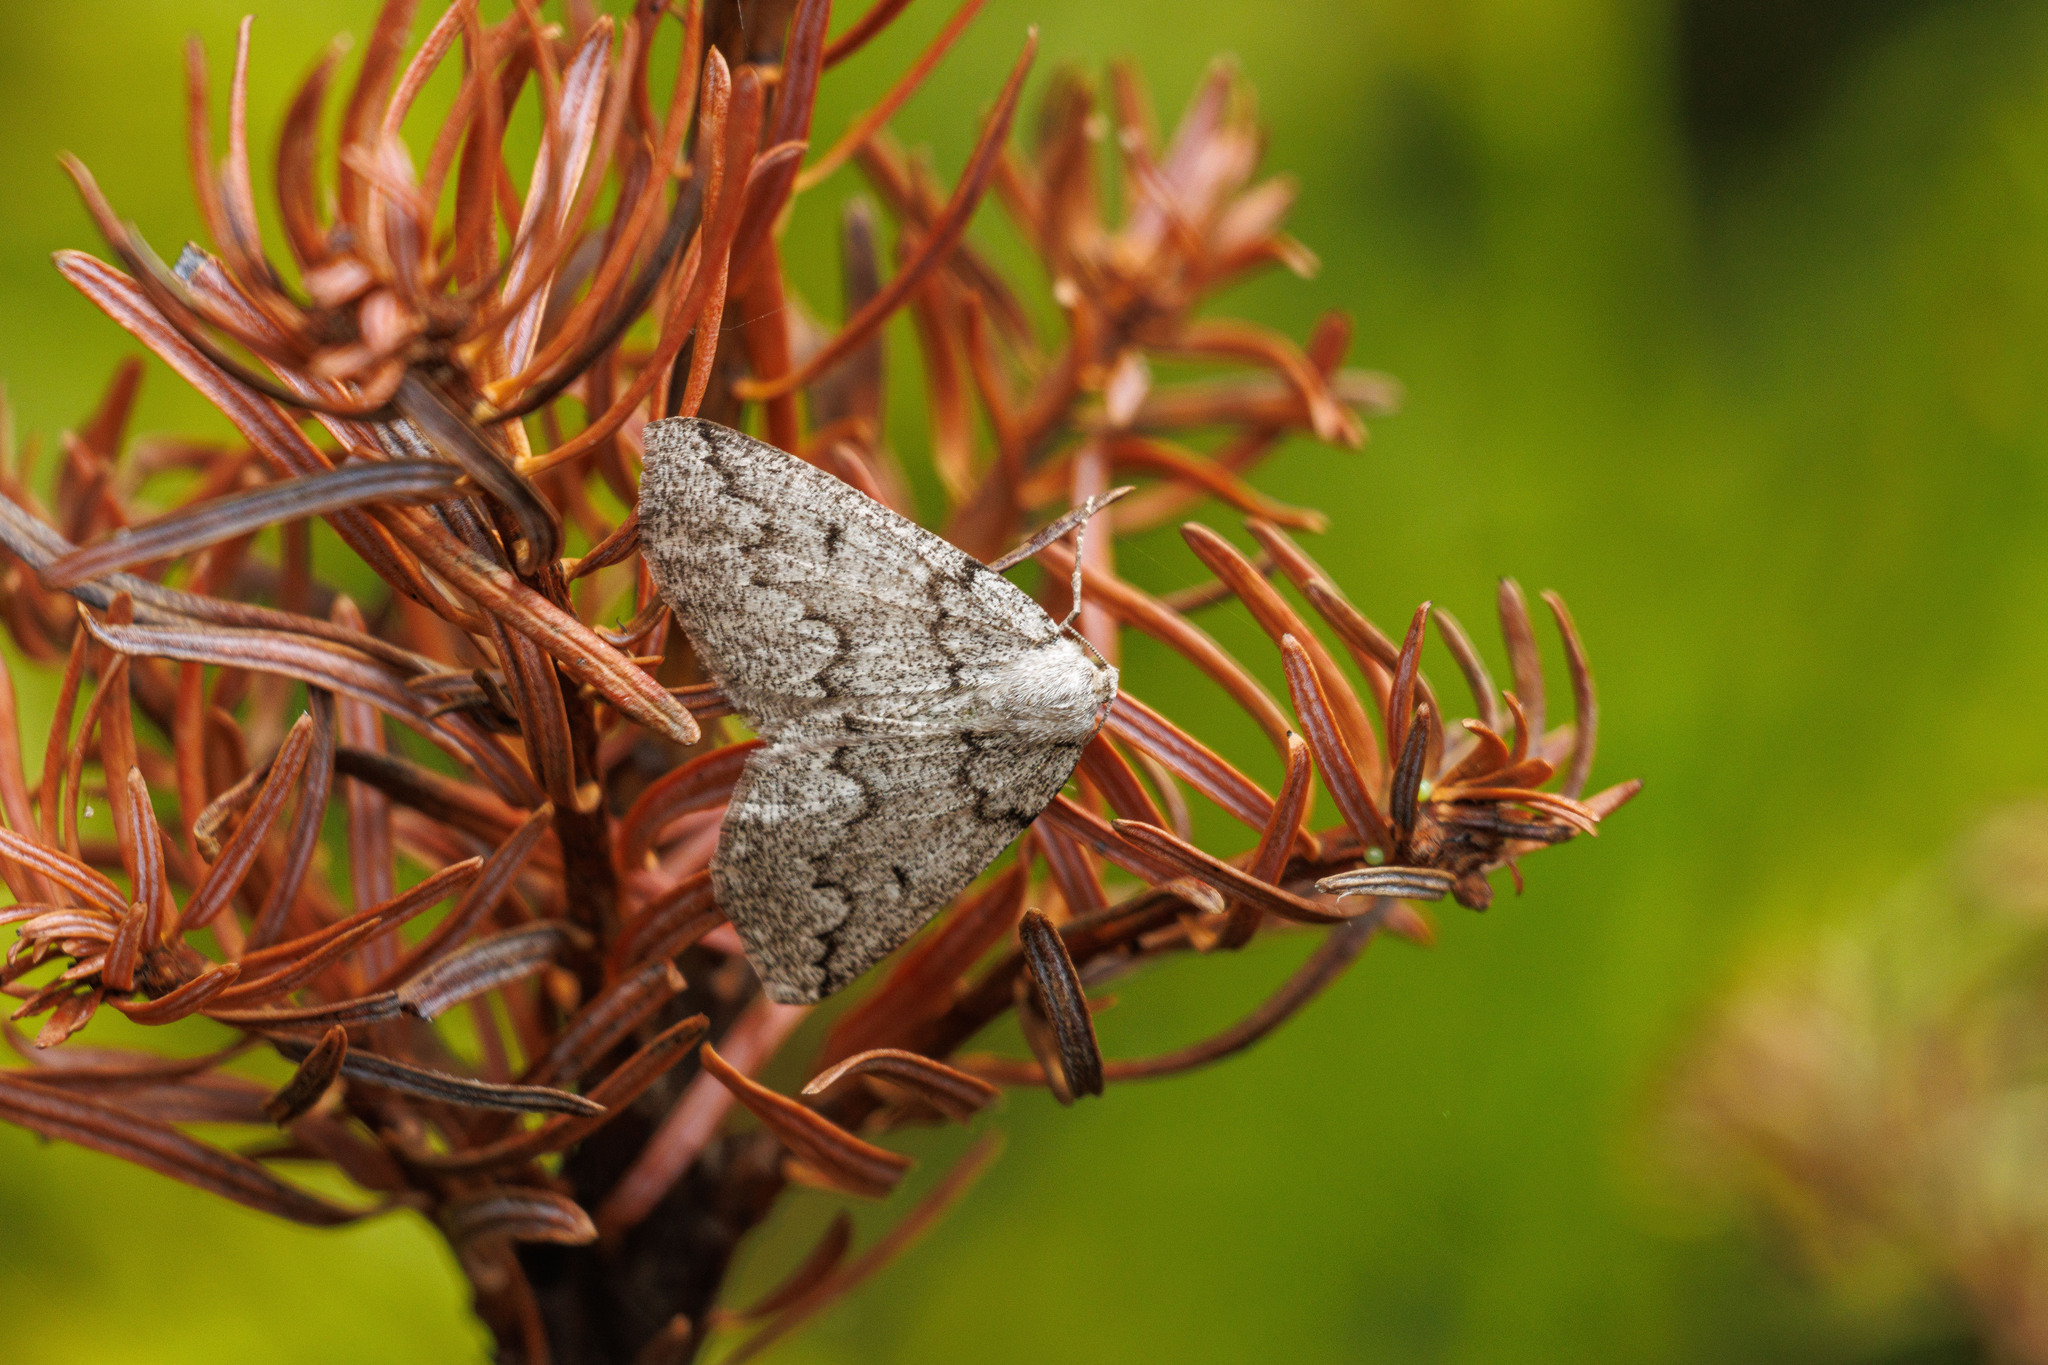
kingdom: Animalia
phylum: Arthropoda
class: Insecta
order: Lepidoptera
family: Geometridae
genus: Sabulodes
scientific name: Sabulodes
